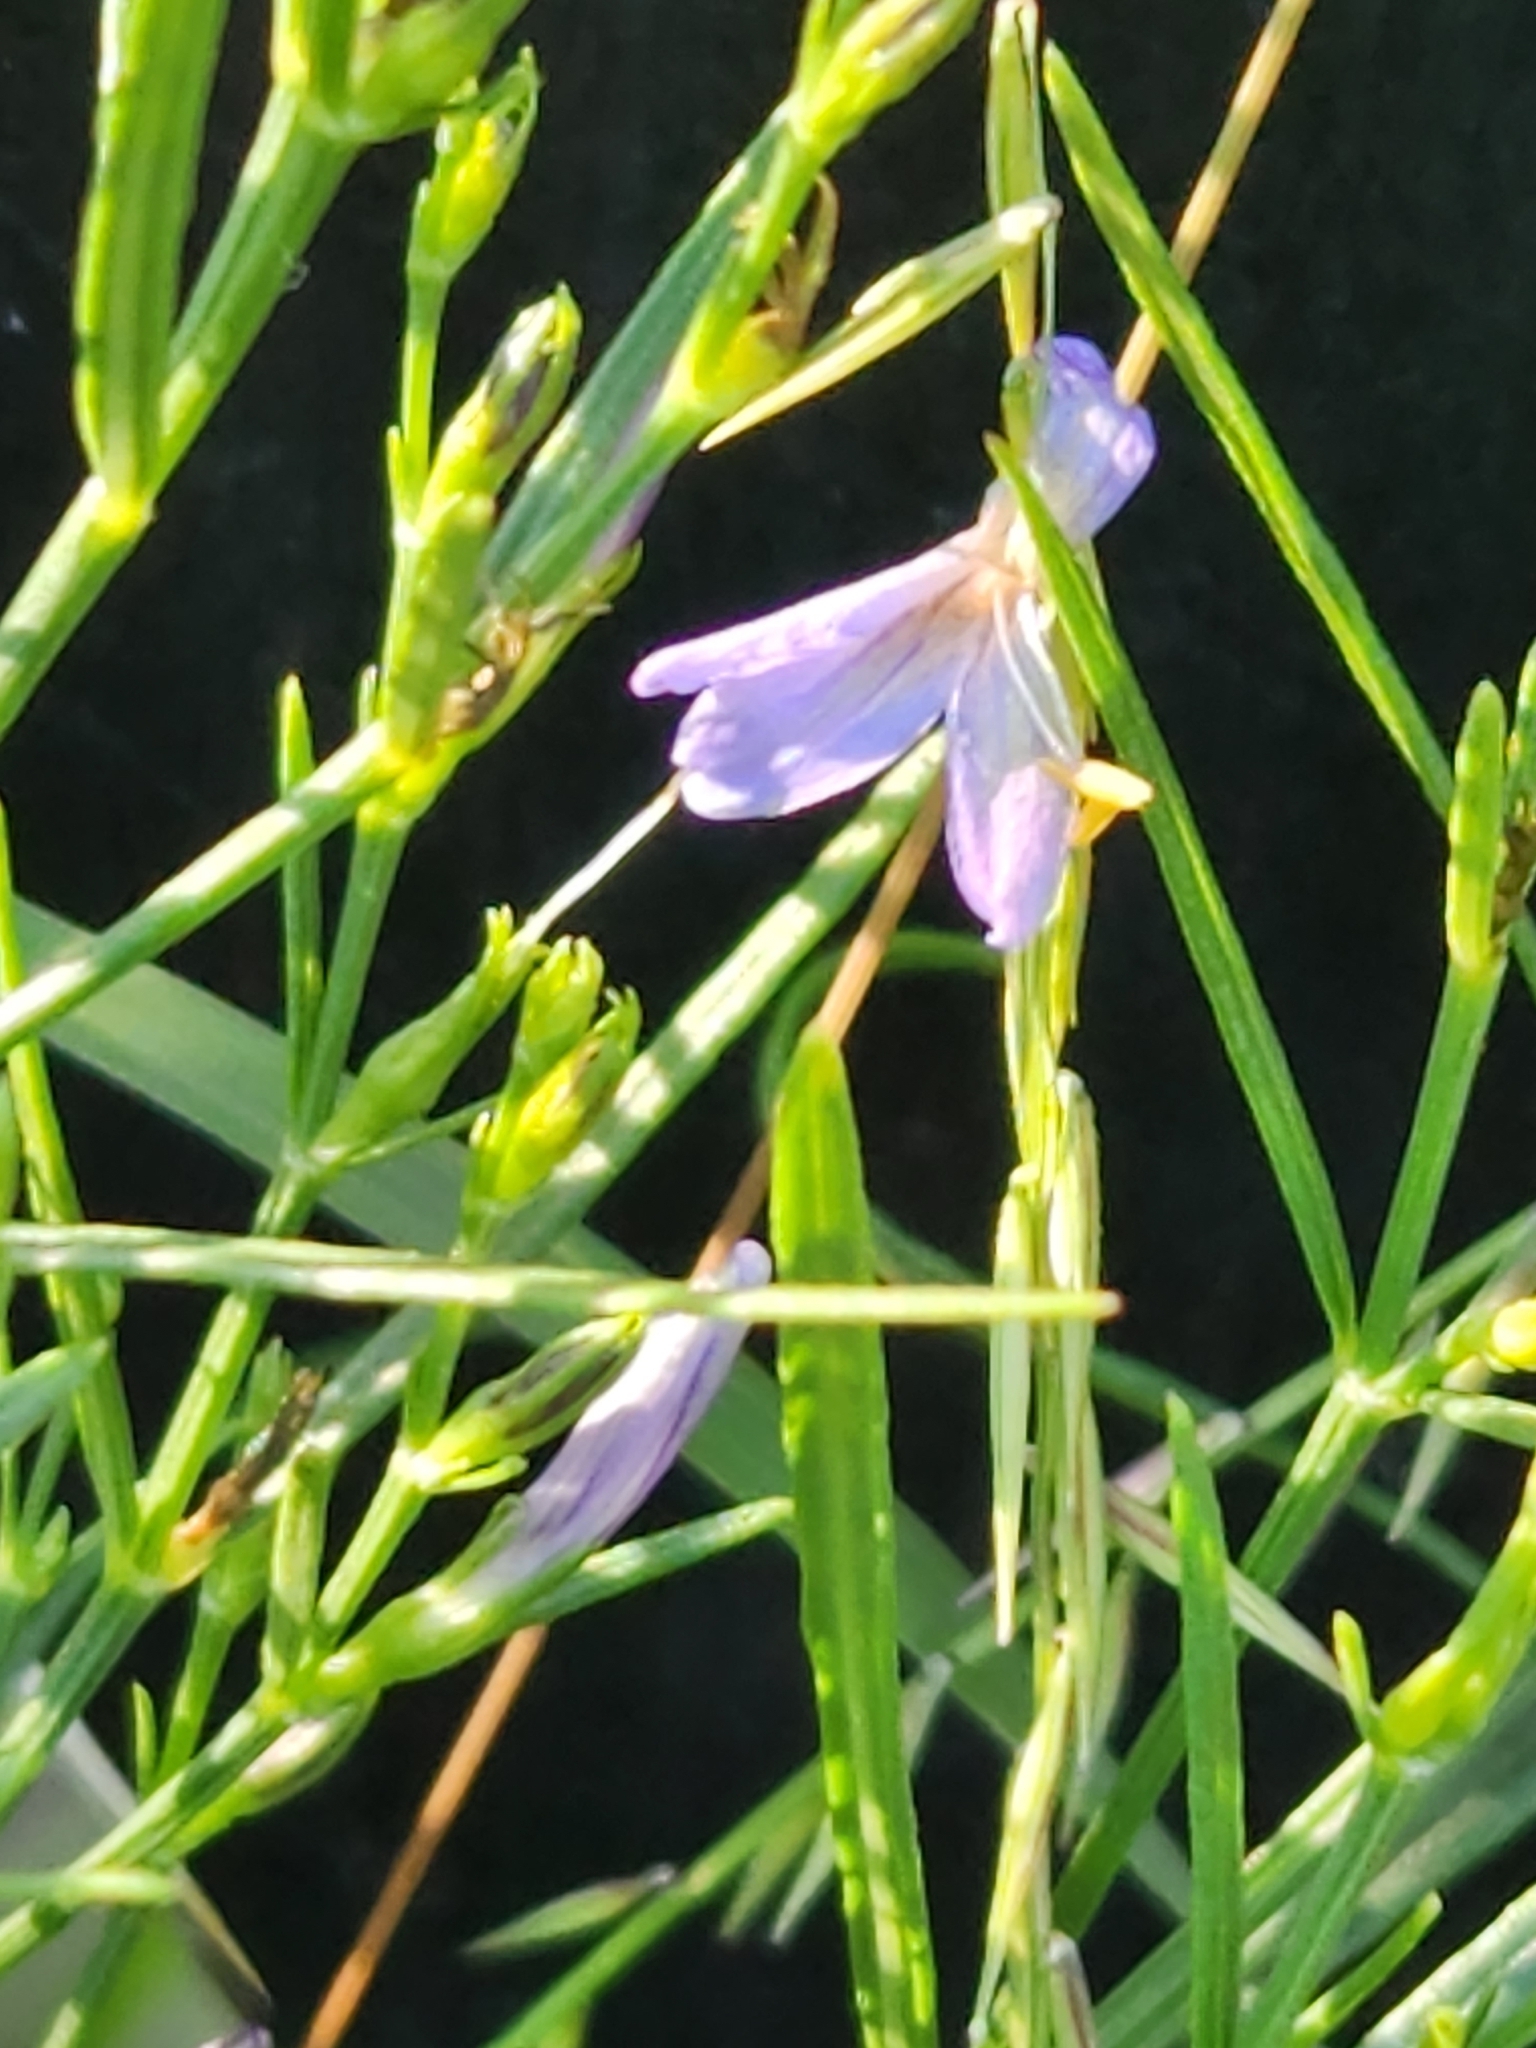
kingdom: Plantae
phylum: Tracheophyta
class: Magnoliopsida
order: Lamiales
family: Acanthaceae
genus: Carlowrightia
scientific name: Carlowrightia linearifolia
